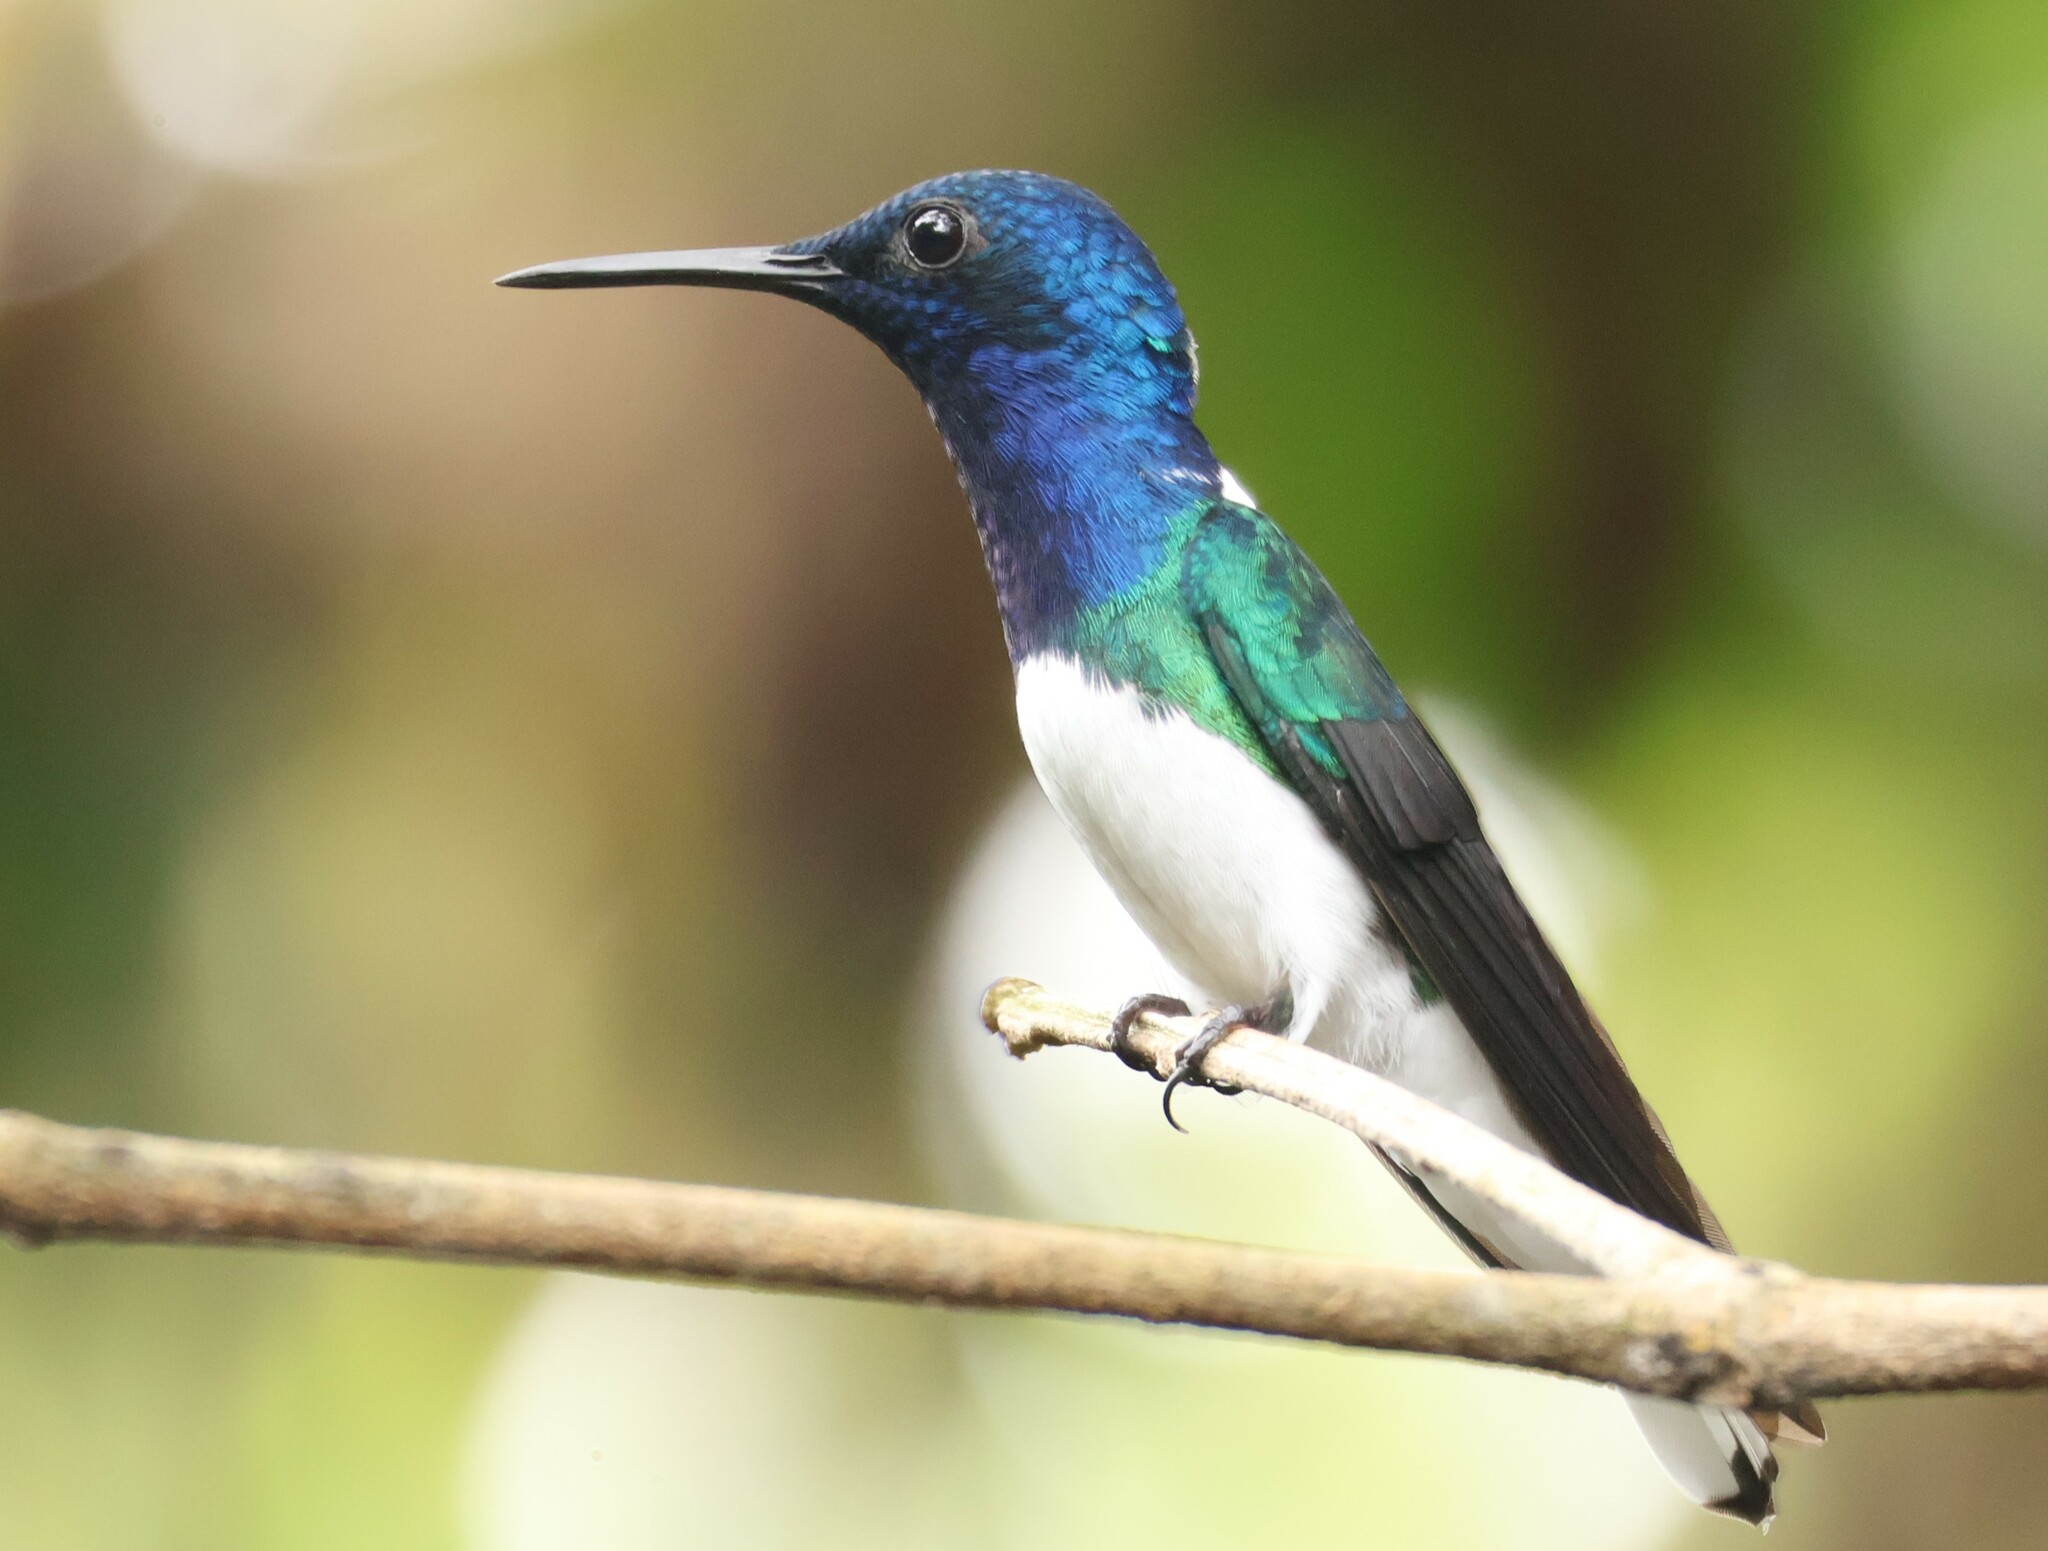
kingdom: Animalia
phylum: Chordata
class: Aves
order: Apodiformes
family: Trochilidae
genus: Florisuga
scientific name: Florisuga mellivora
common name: White-necked jacobin
